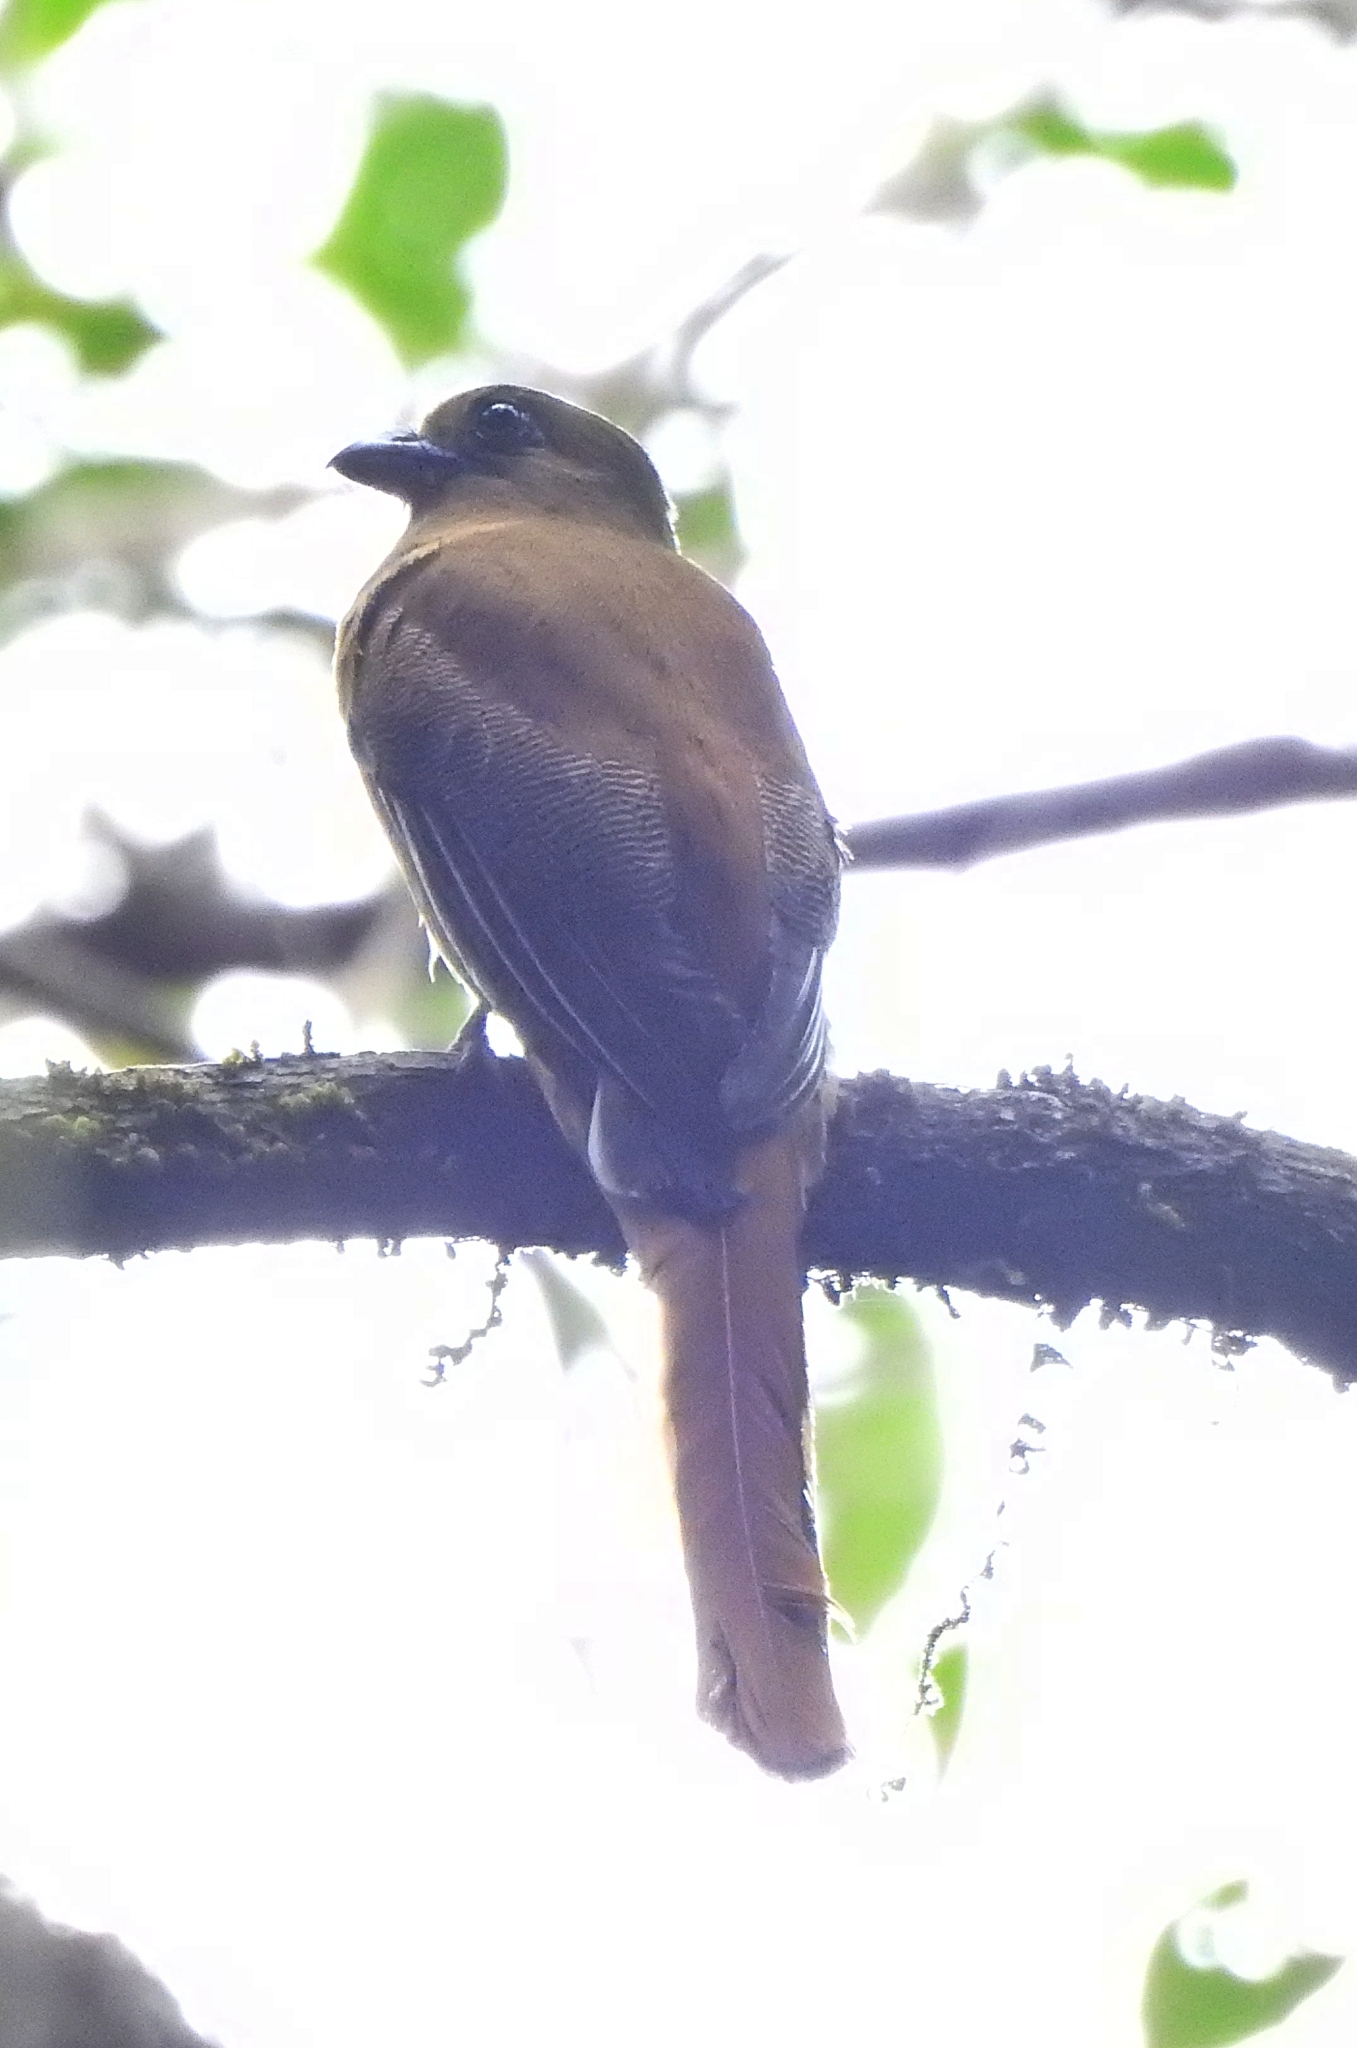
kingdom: Animalia
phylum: Chordata
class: Aves
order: Trogoniformes
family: Trogonidae
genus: Harpactes
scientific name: Harpactes fasciatus
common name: Malabar trogon
